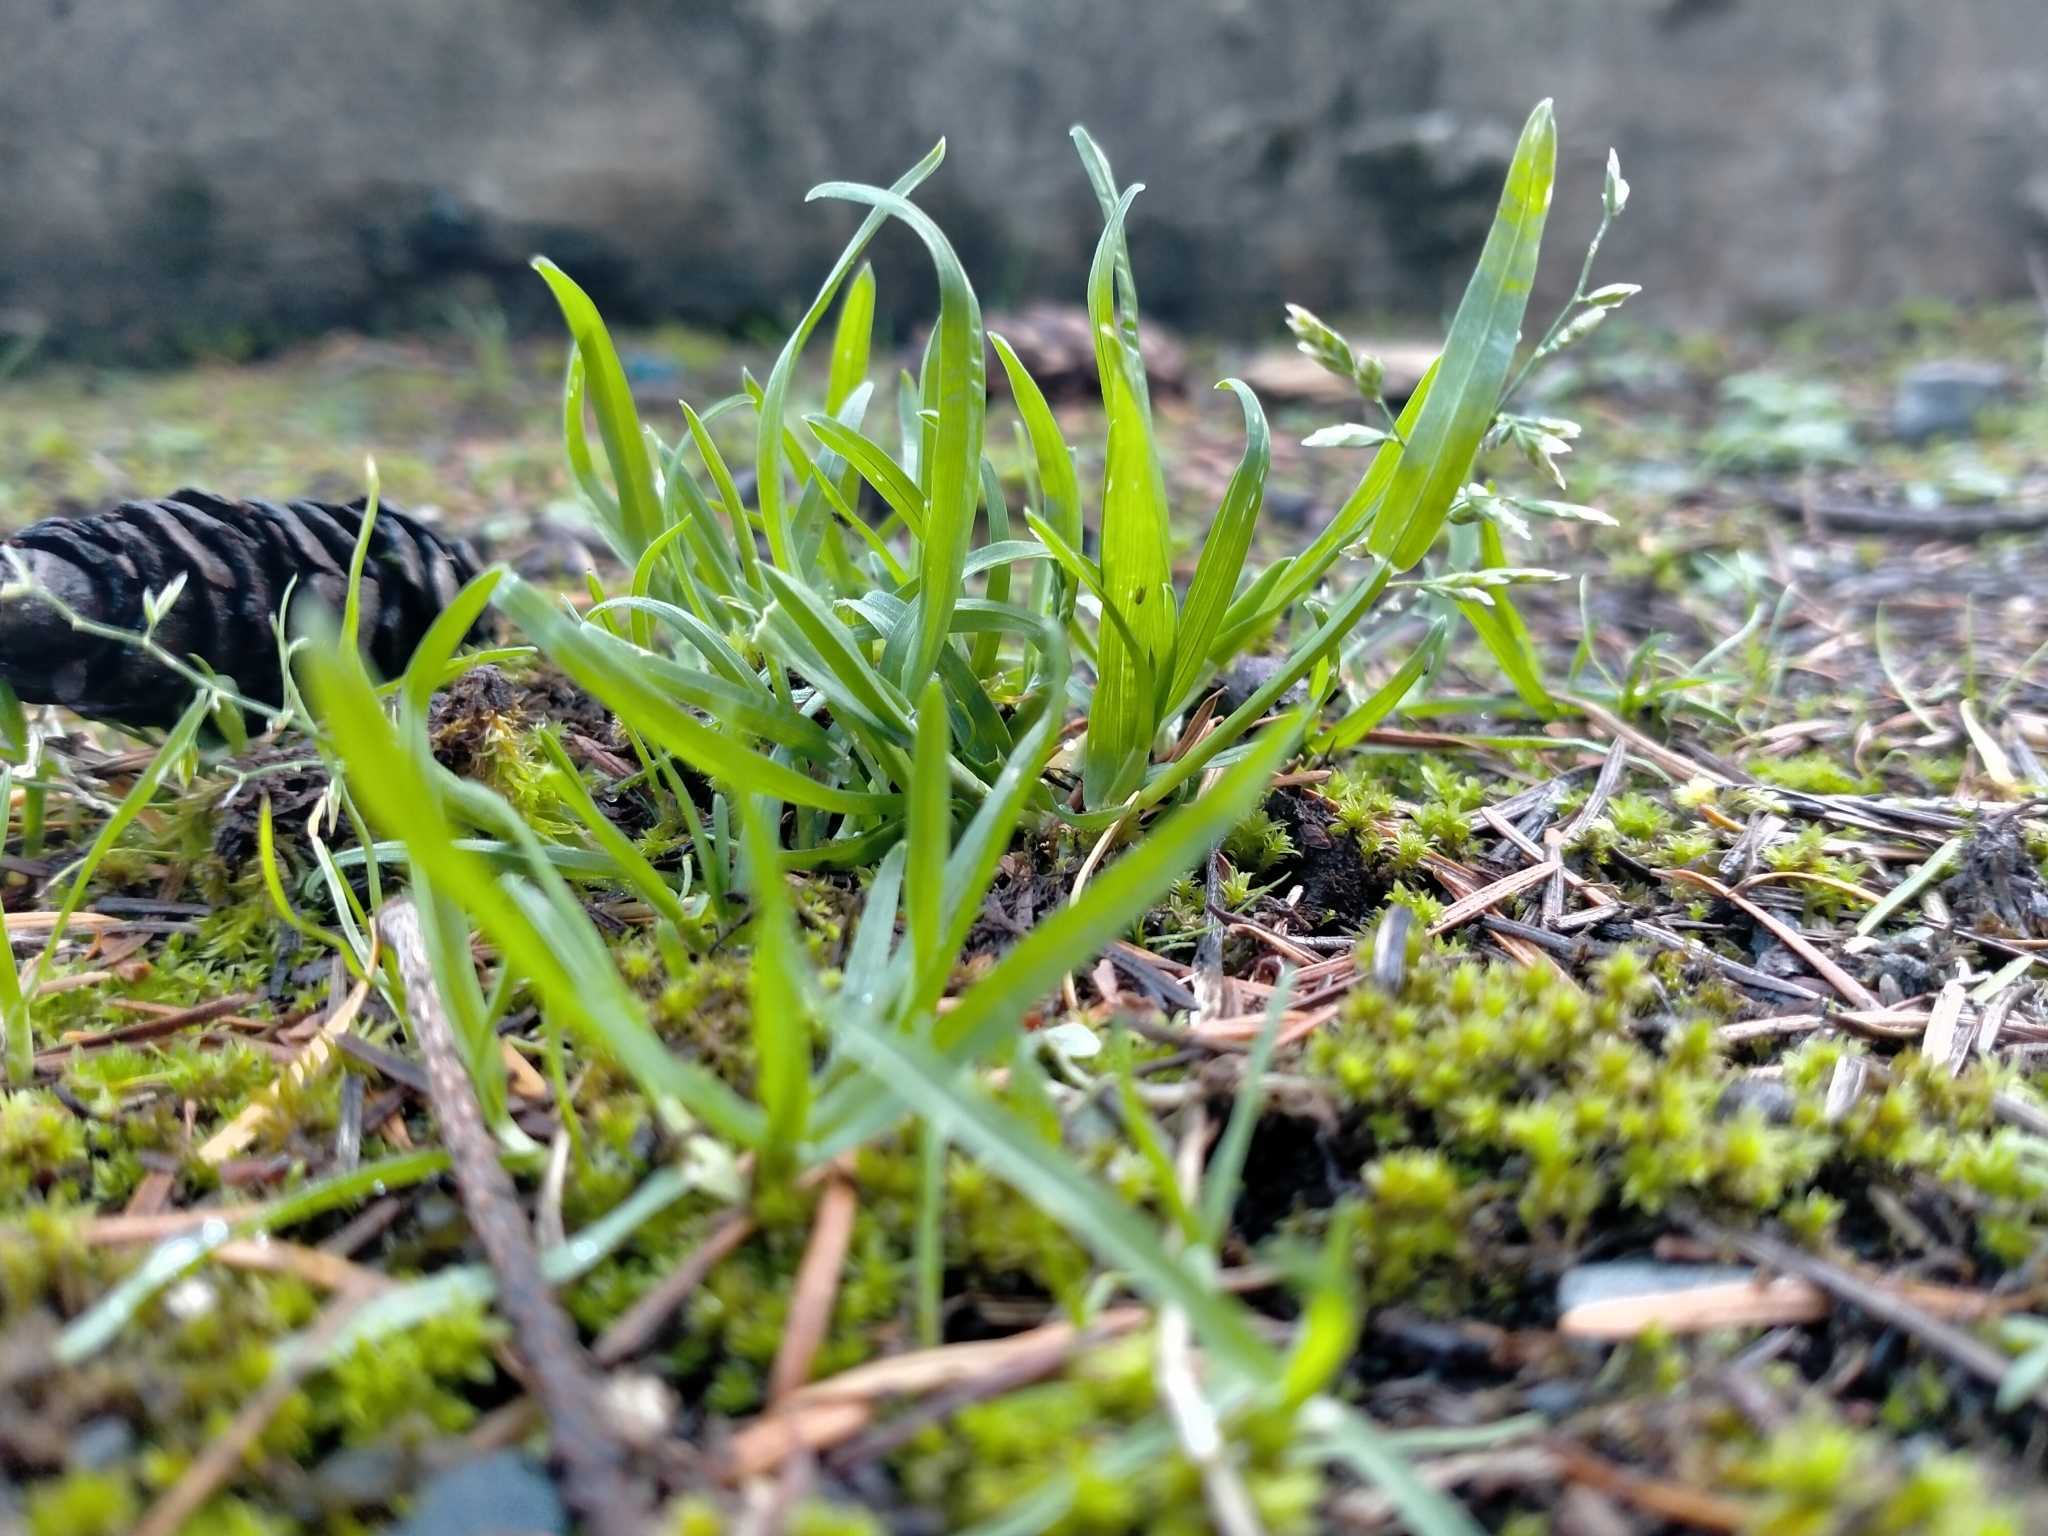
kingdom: Plantae
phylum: Tracheophyta
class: Liliopsida
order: Poales
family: Poaceae
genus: Poa
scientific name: Poa annua
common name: Annual bluegrass
